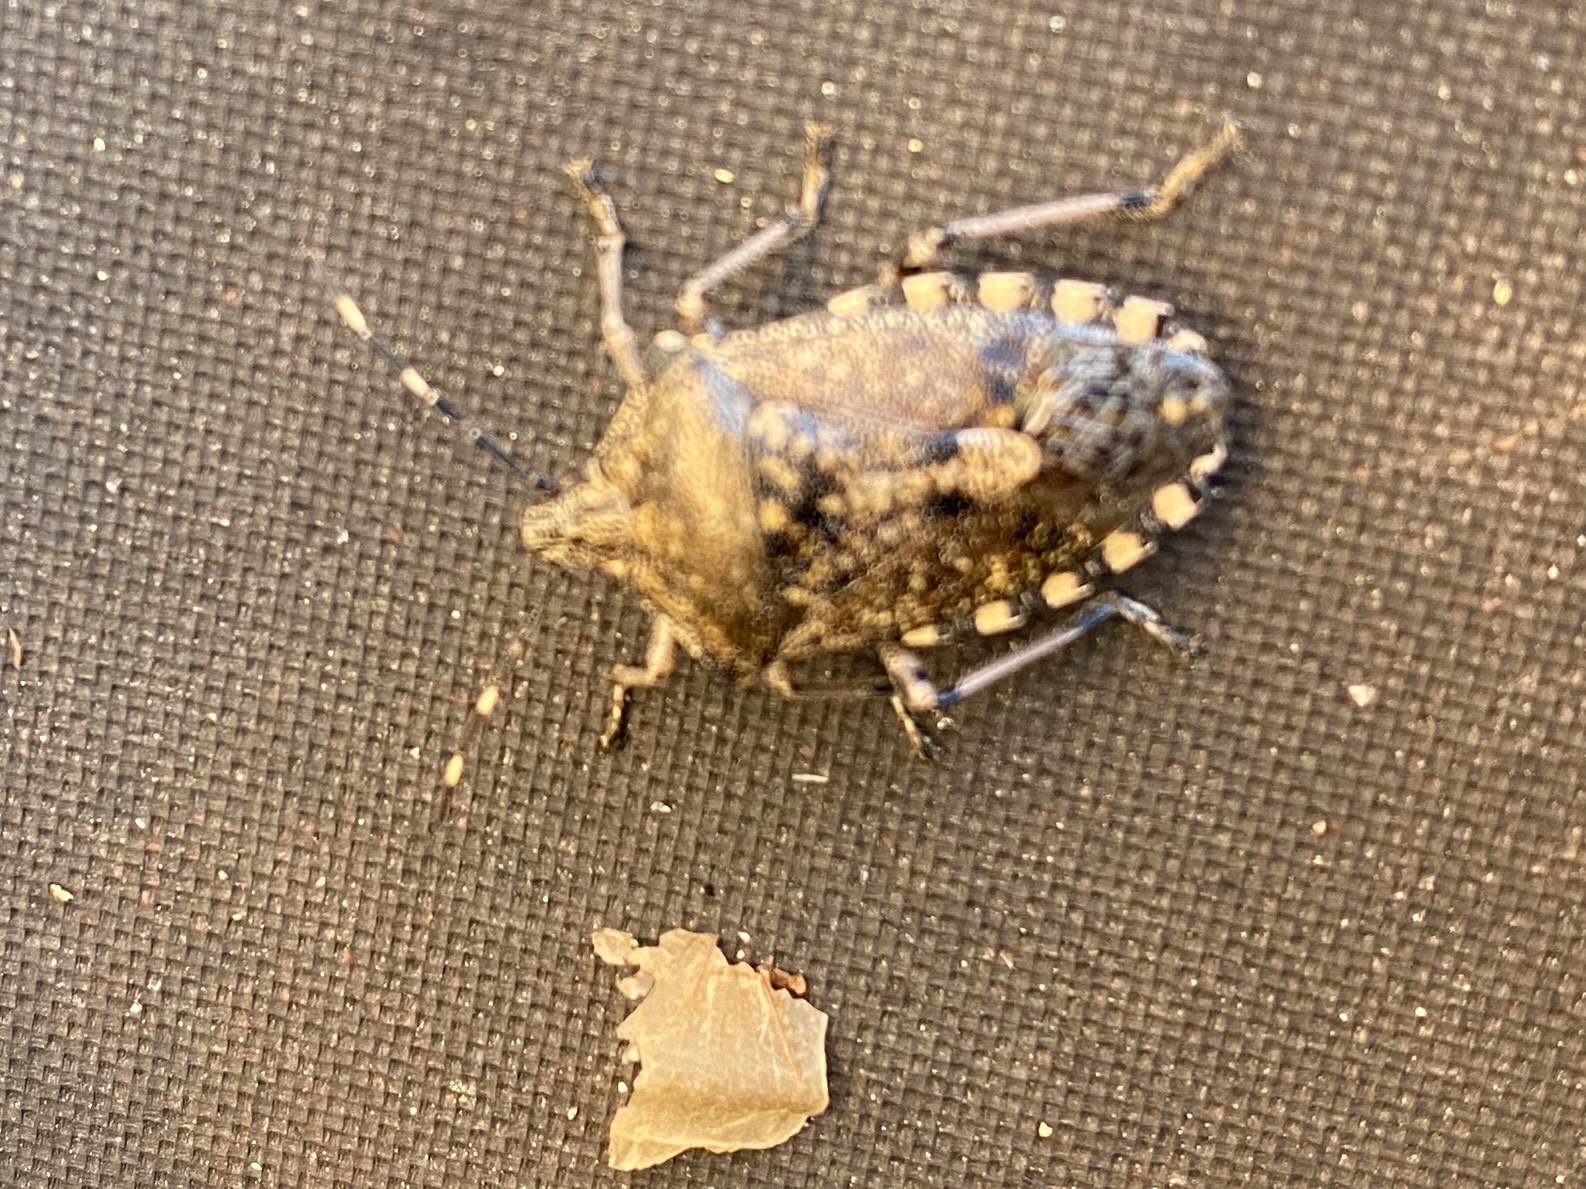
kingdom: Animalia
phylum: Arthropoda
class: Insecta
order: Hemiptera
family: Pentatomidae
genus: Rhaphigaster
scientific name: Rhaphigaster nebulosa
